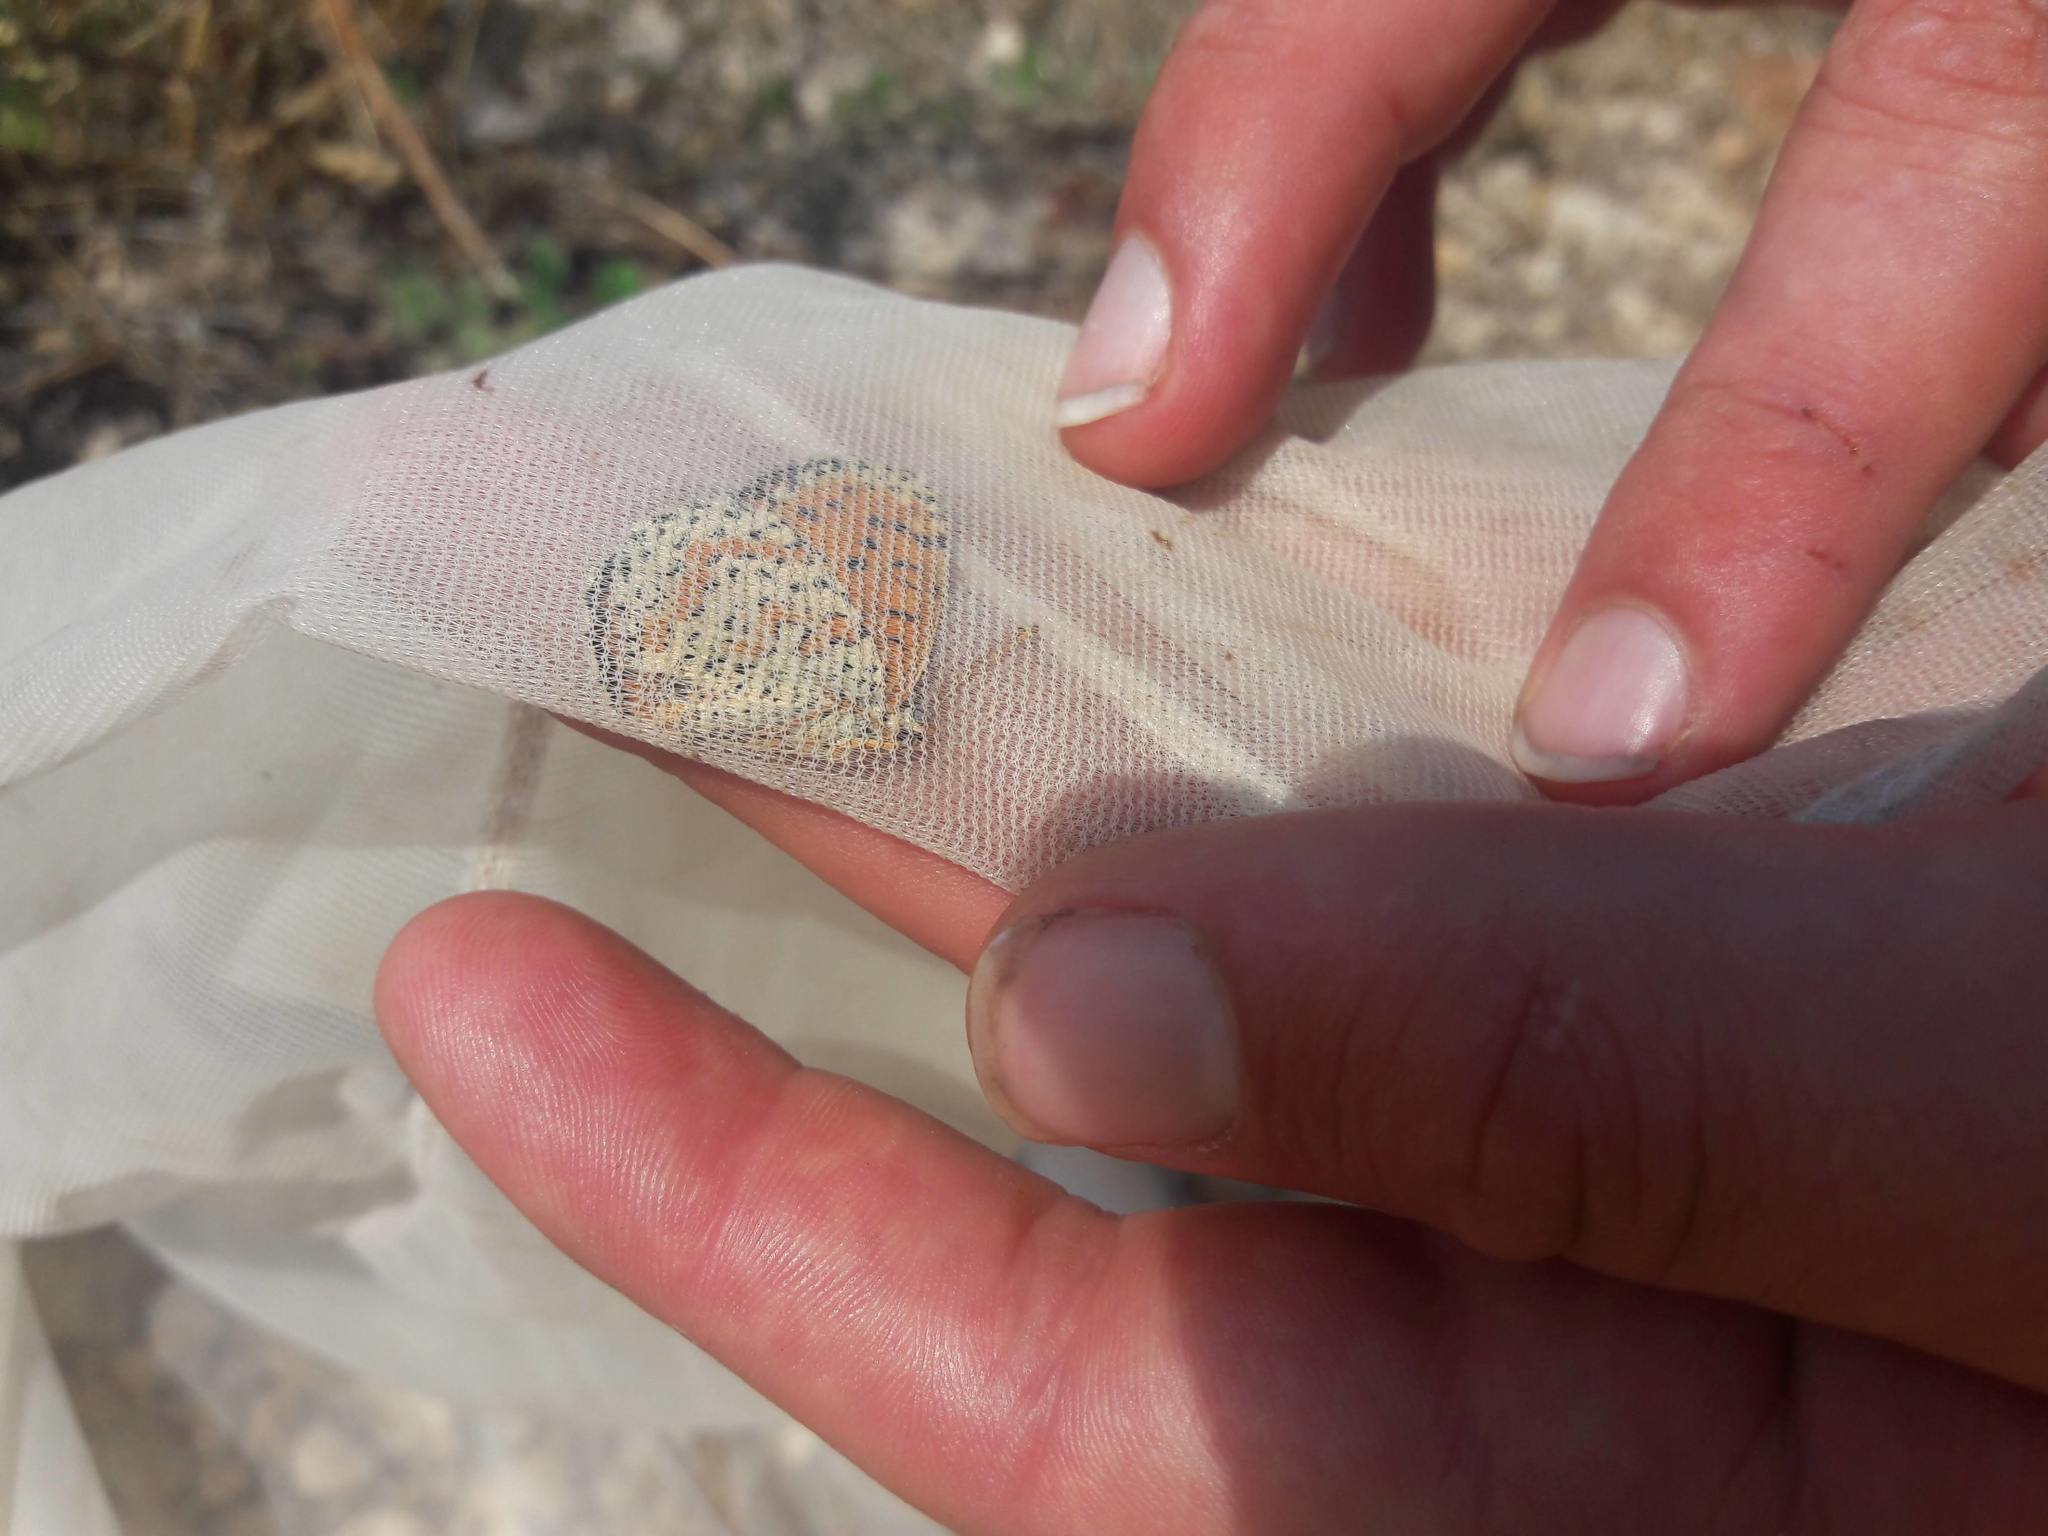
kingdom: Animalia
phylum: Arthropoda
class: Insecta
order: Lepidoptera
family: Nymphalidae
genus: Melitaea
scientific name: Melitaea didyma
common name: Spotted fritillary
